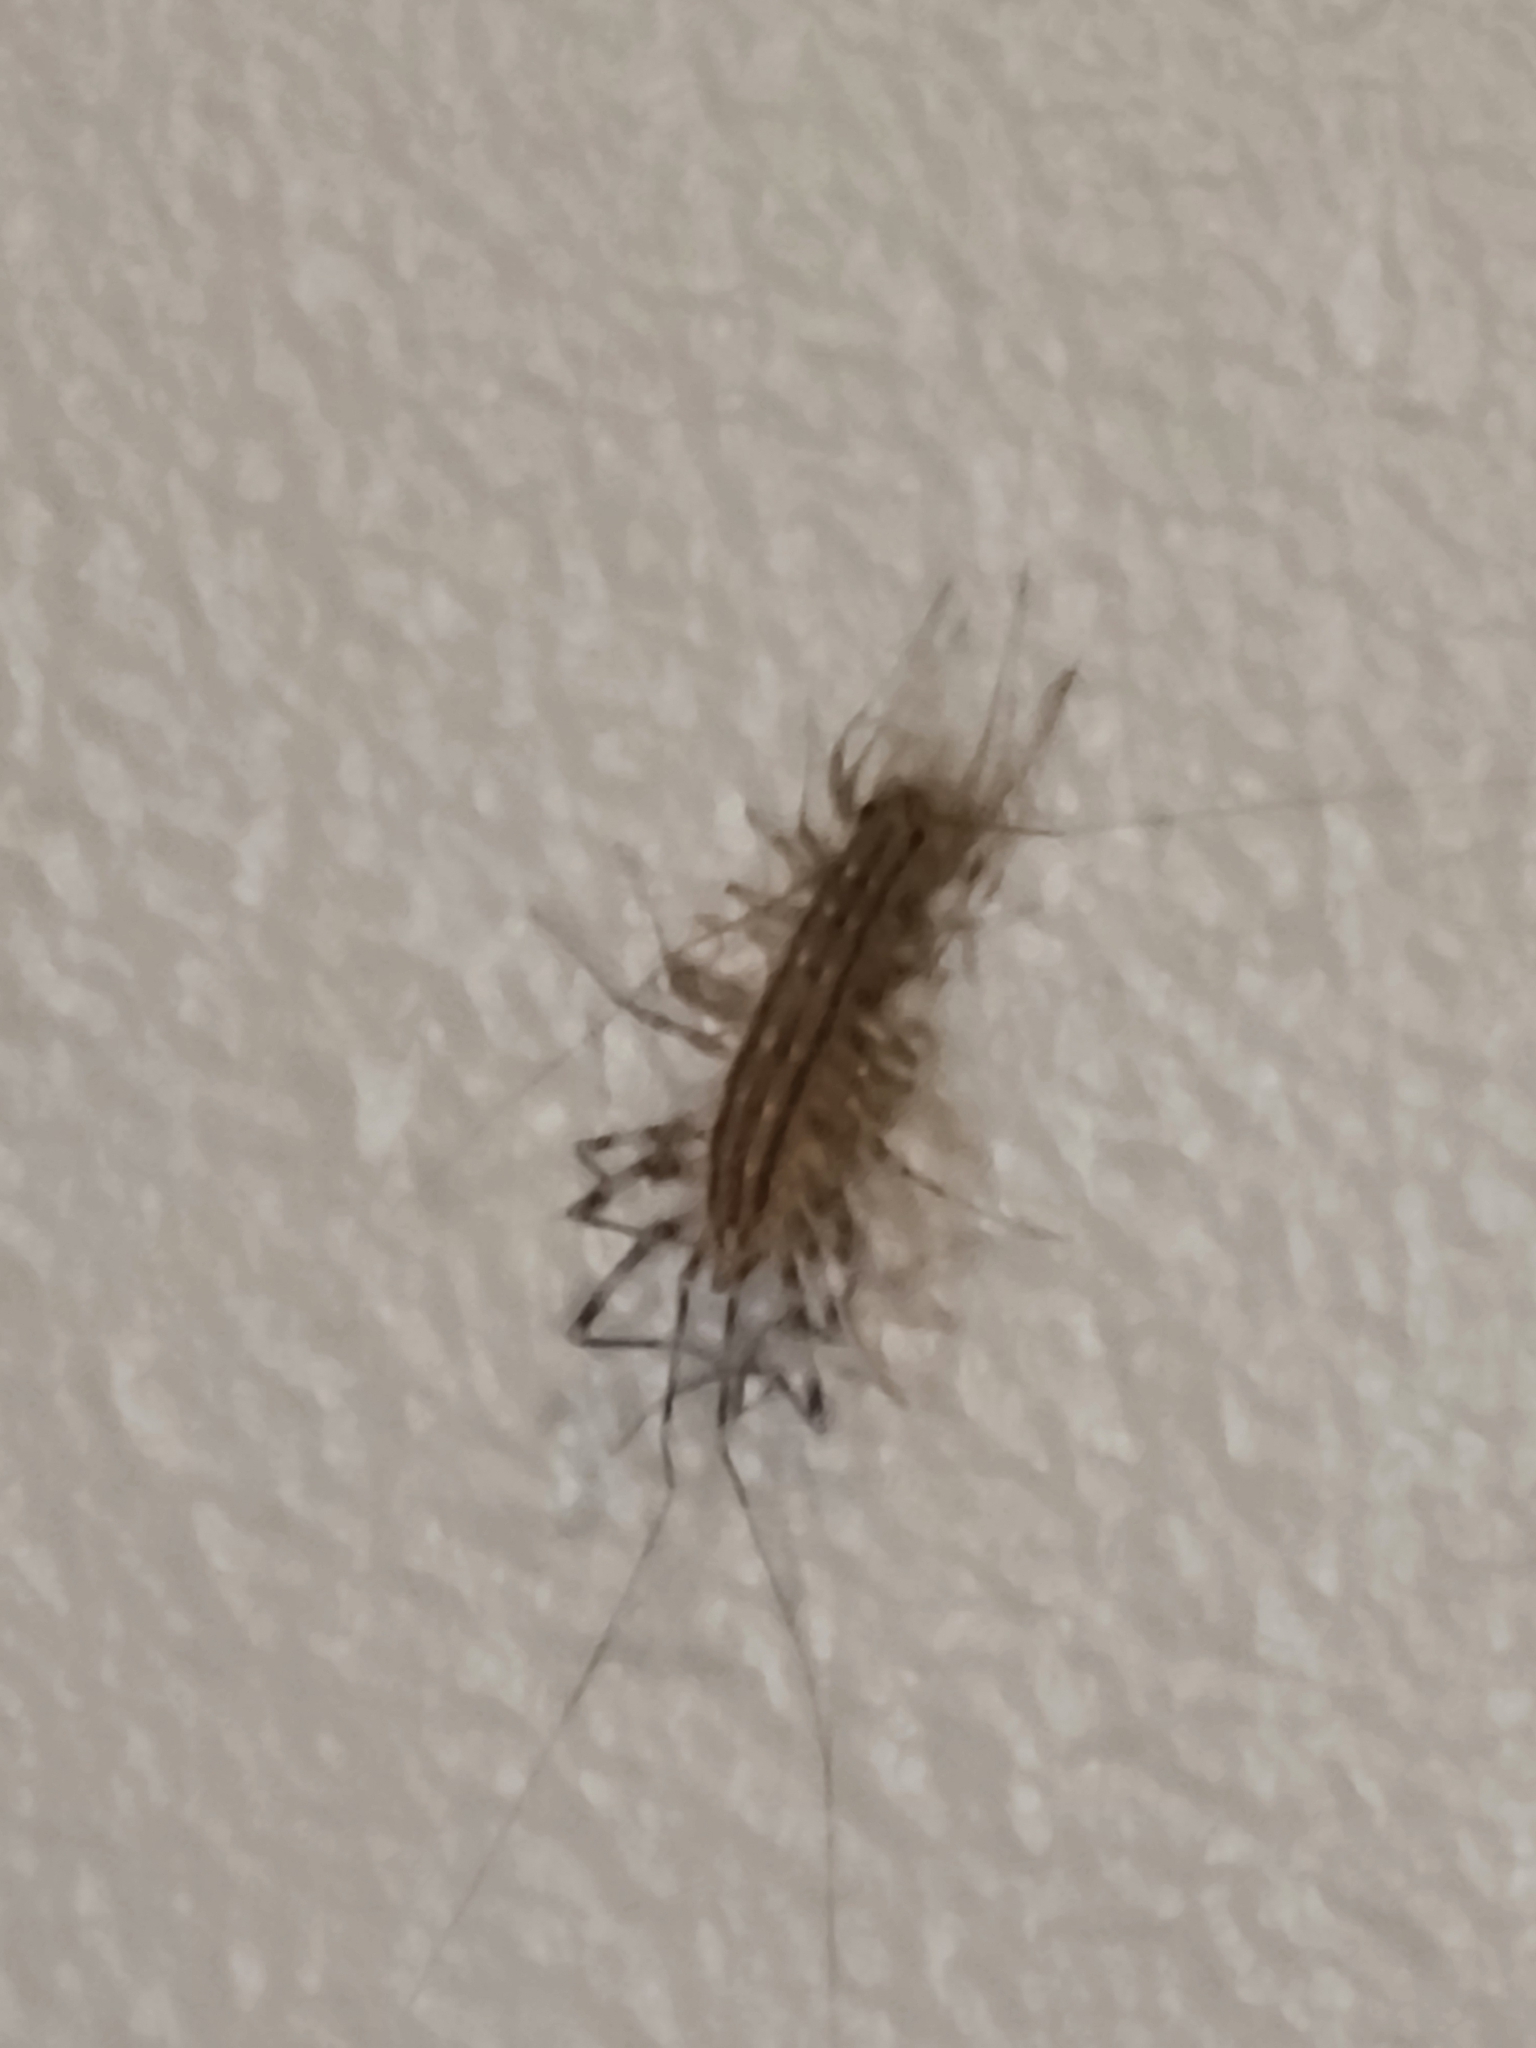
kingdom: Animalia
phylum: Arthropoda
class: Chilopoda
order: Scutigeromorpha
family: Scutigeridae
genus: Scutigera
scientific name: Scutigera coleoptrata
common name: House centipede
